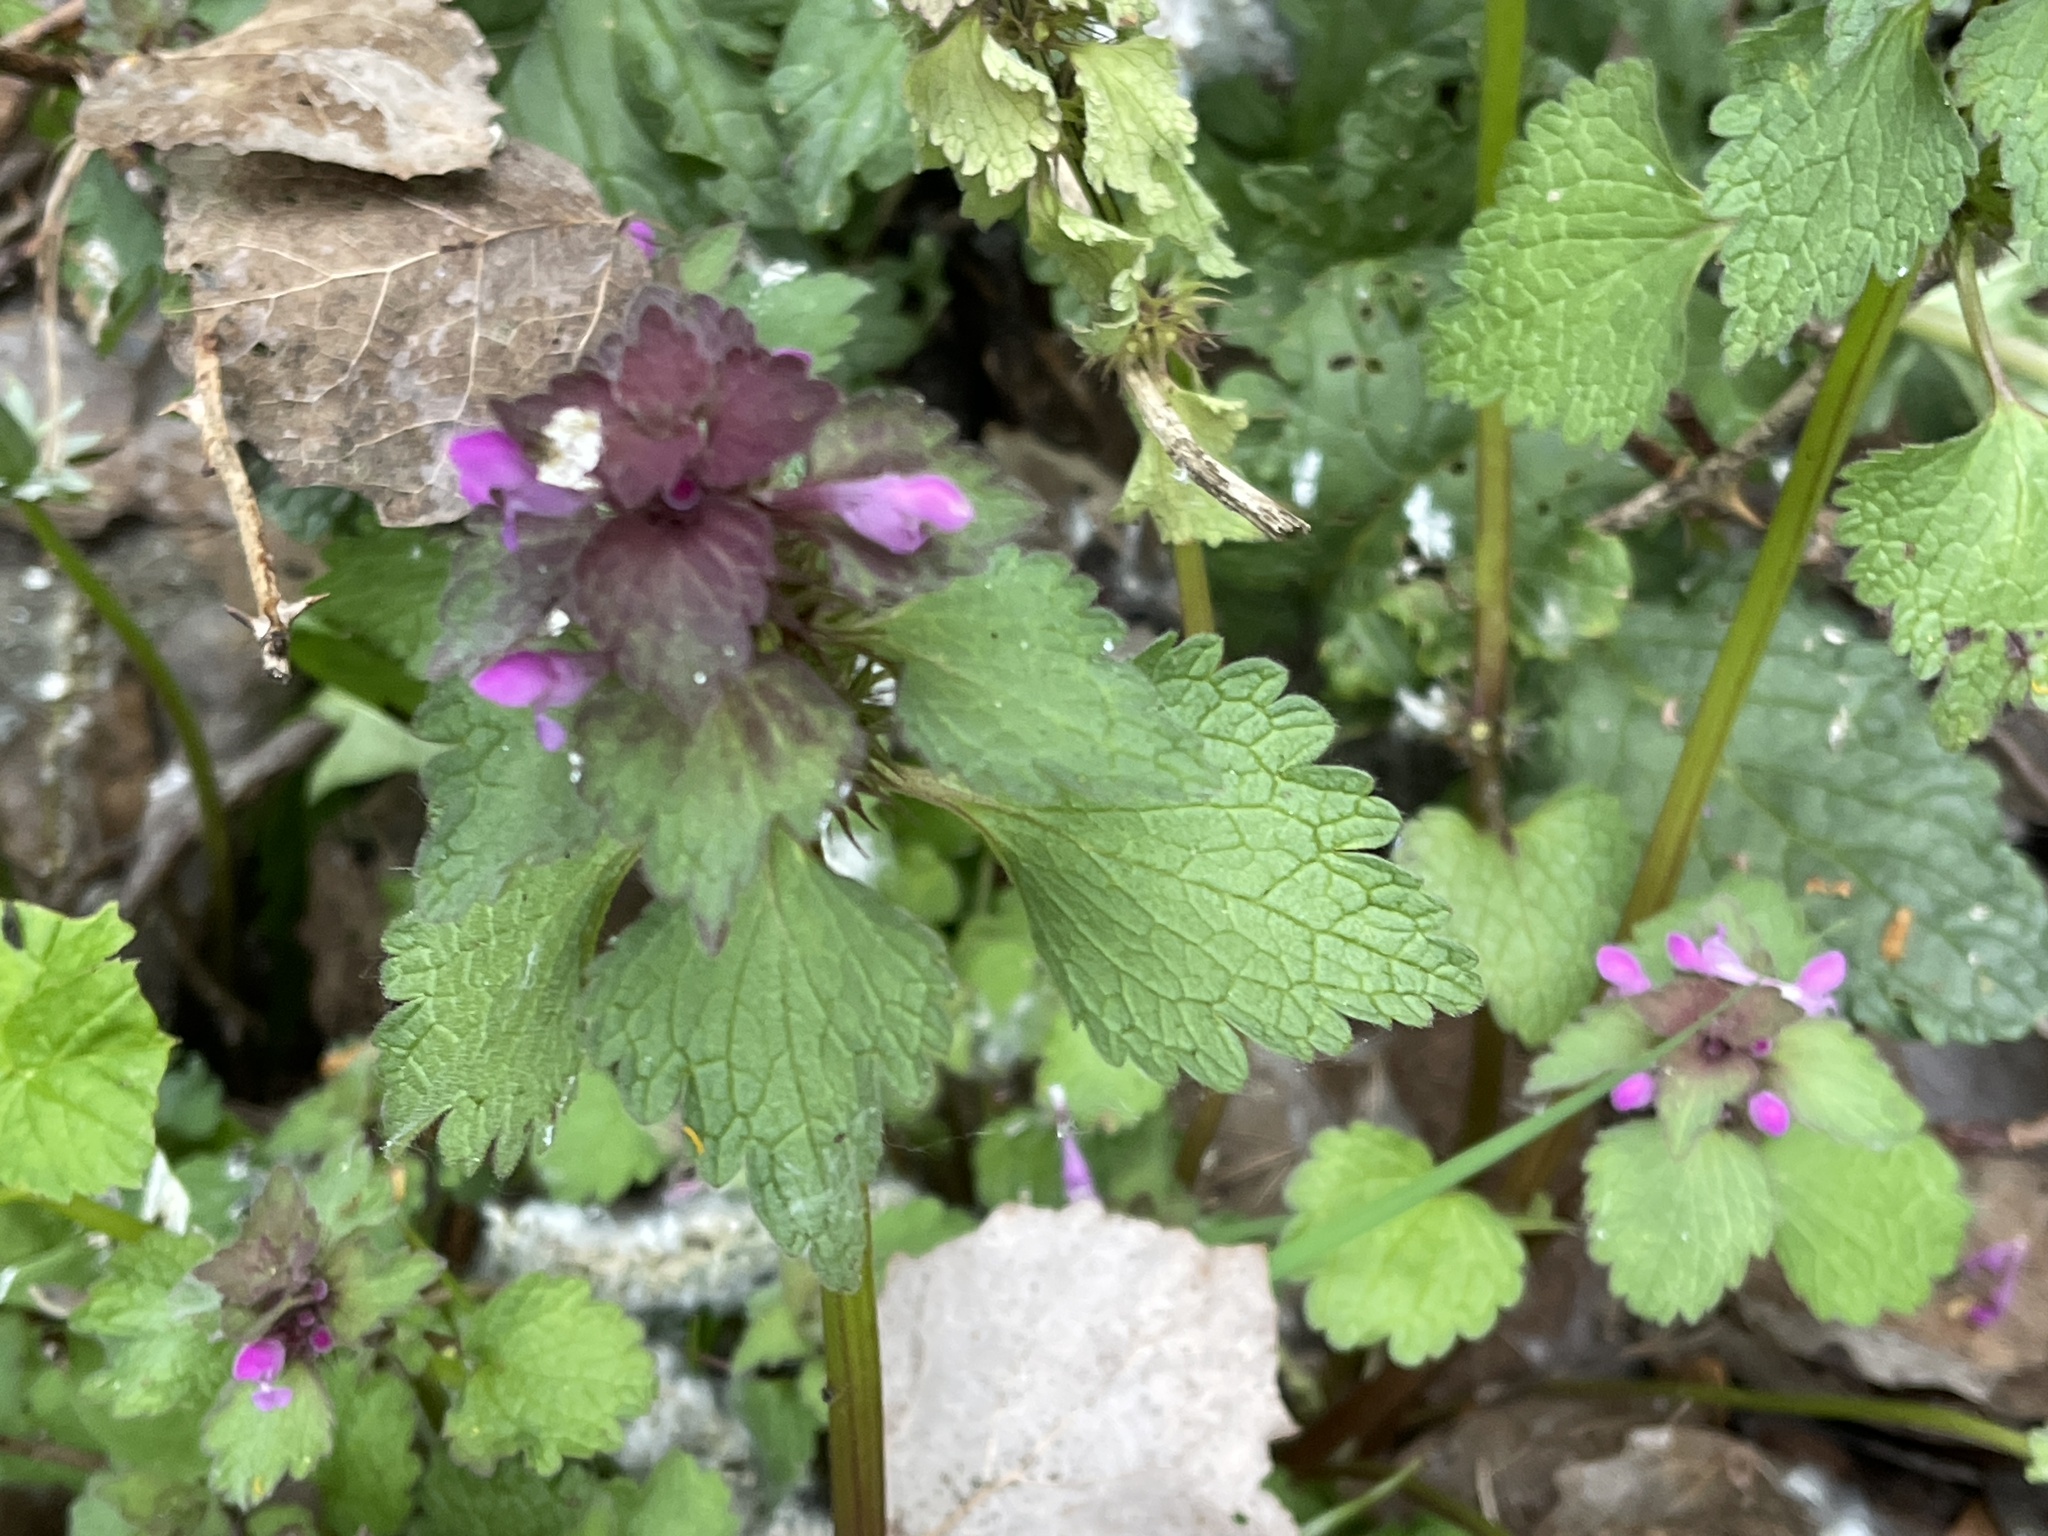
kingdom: Plantae
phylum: Tracheophyta
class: Magnoliopsida
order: Lamiales
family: Lamiaceae
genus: Lamium
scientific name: Lamium hybridum
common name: Cut-leaved dead-nettle
